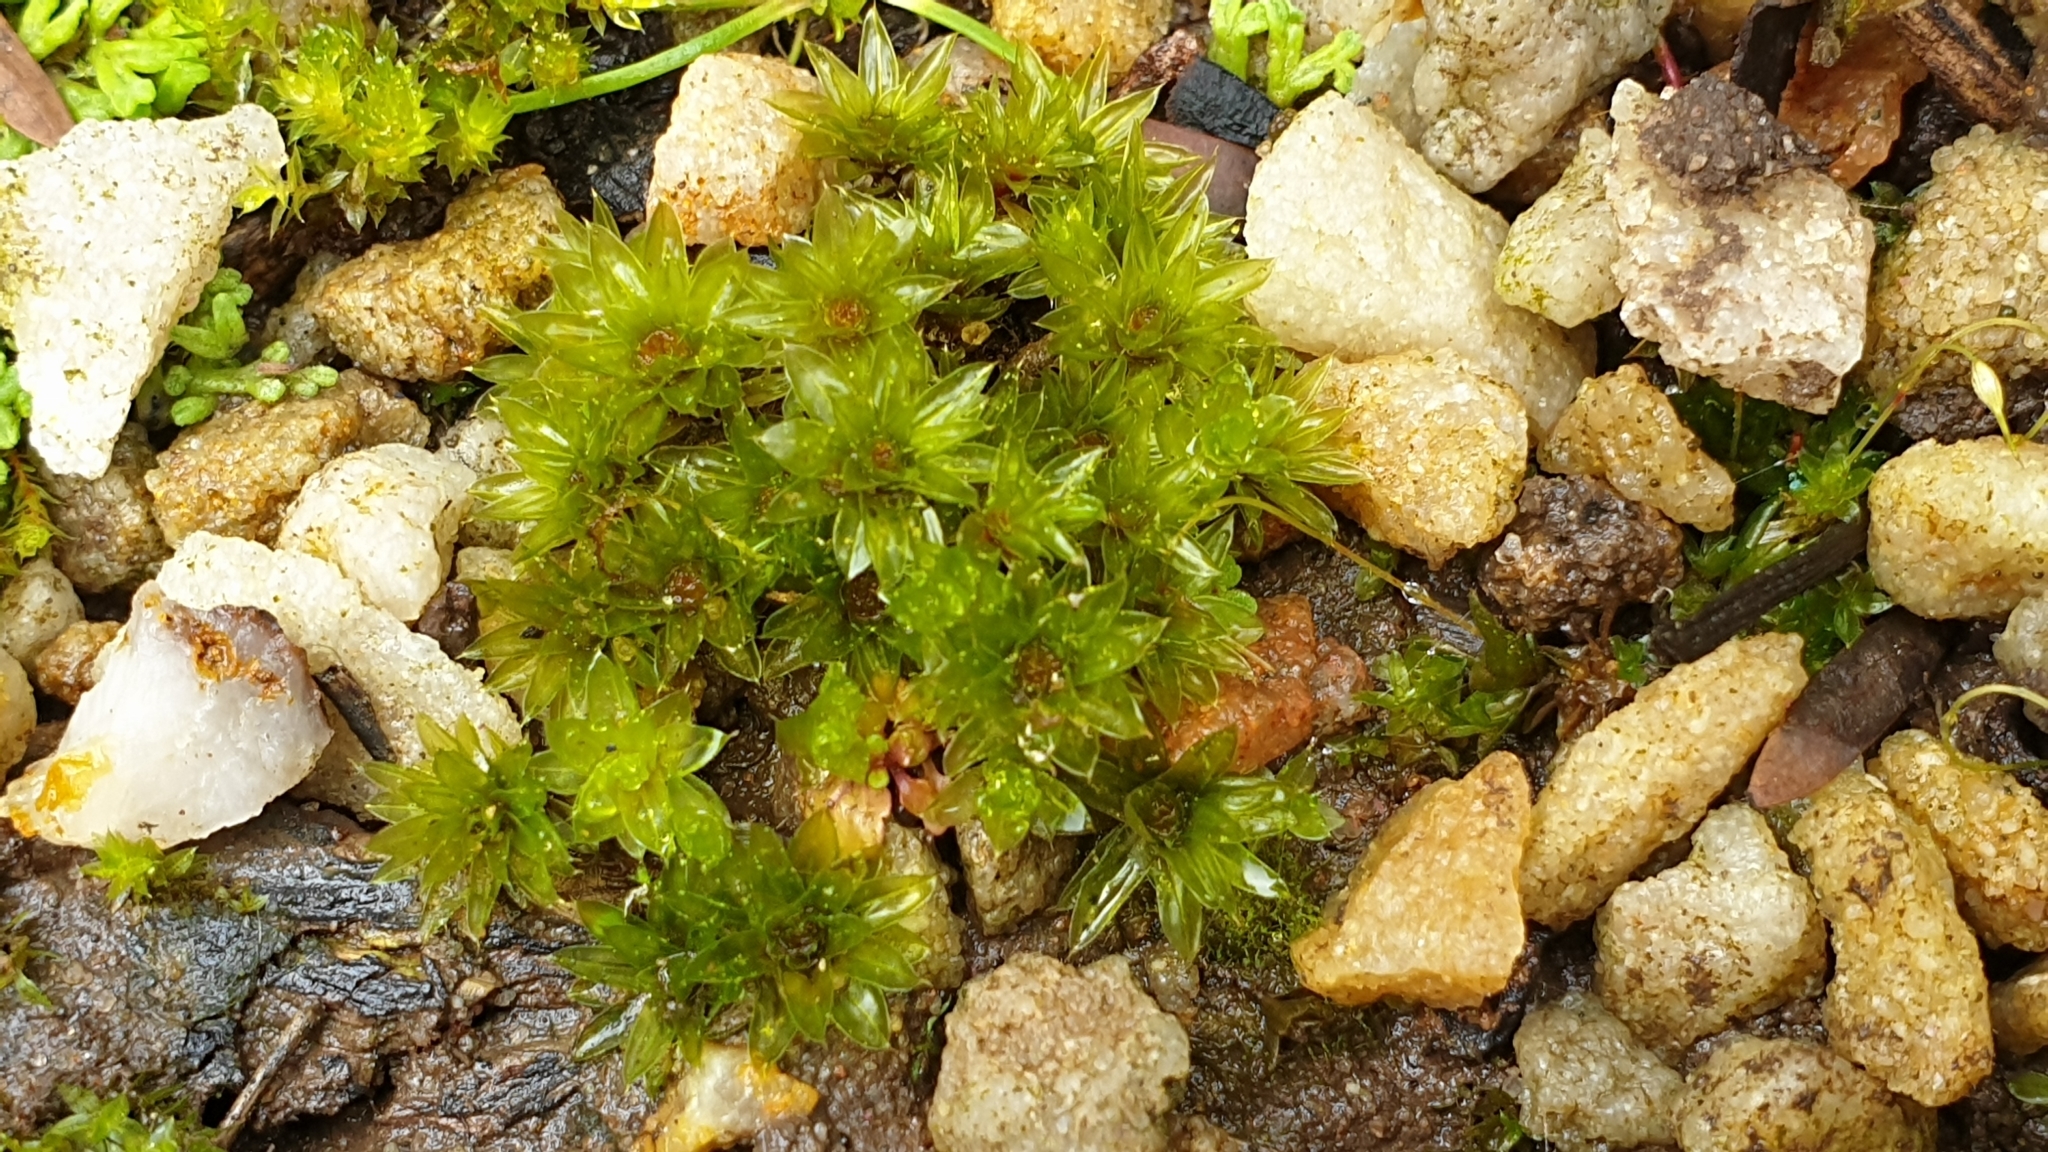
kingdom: Plantae
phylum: Bryophyta
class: Bryopsida
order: Bryales
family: Bryaceae
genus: Rosulabryum
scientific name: Rosulabryum billardierei
